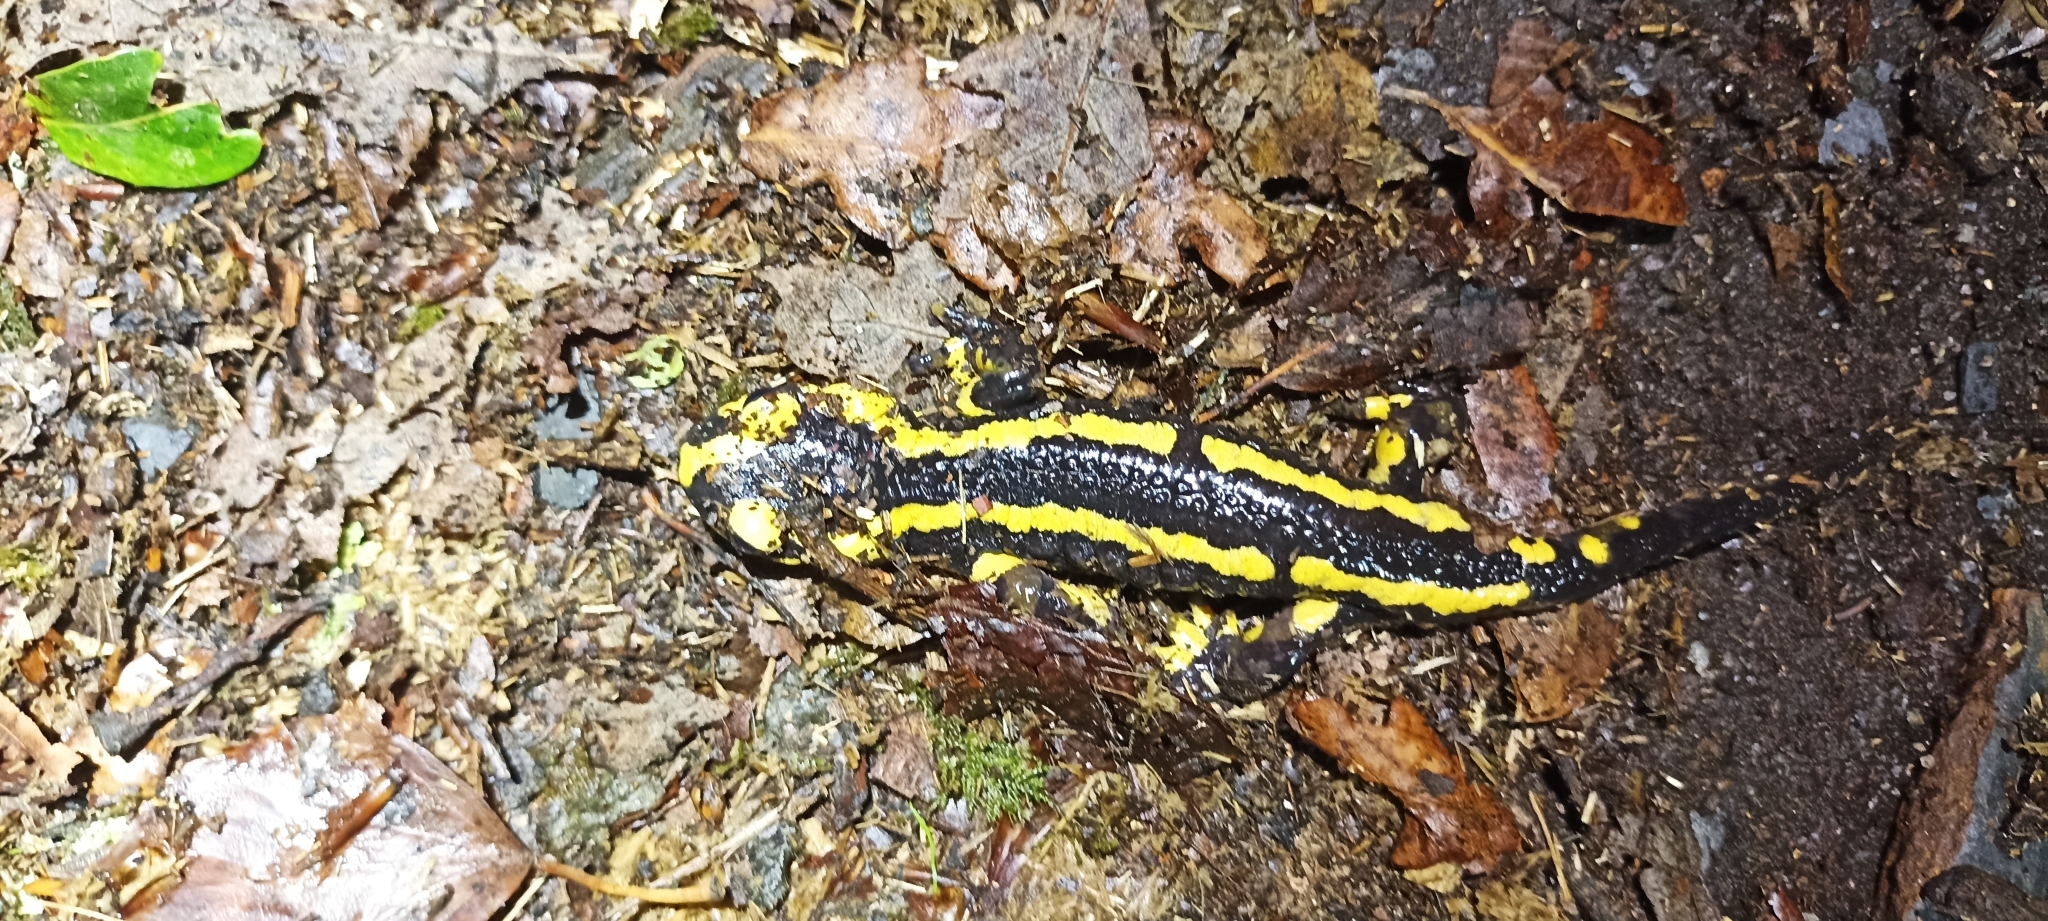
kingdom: Animalia
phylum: Chordata
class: Amphibia
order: Caudata
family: Salamandridae
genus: Salamandra
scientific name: Salamandra salamandra
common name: Fire salamander
